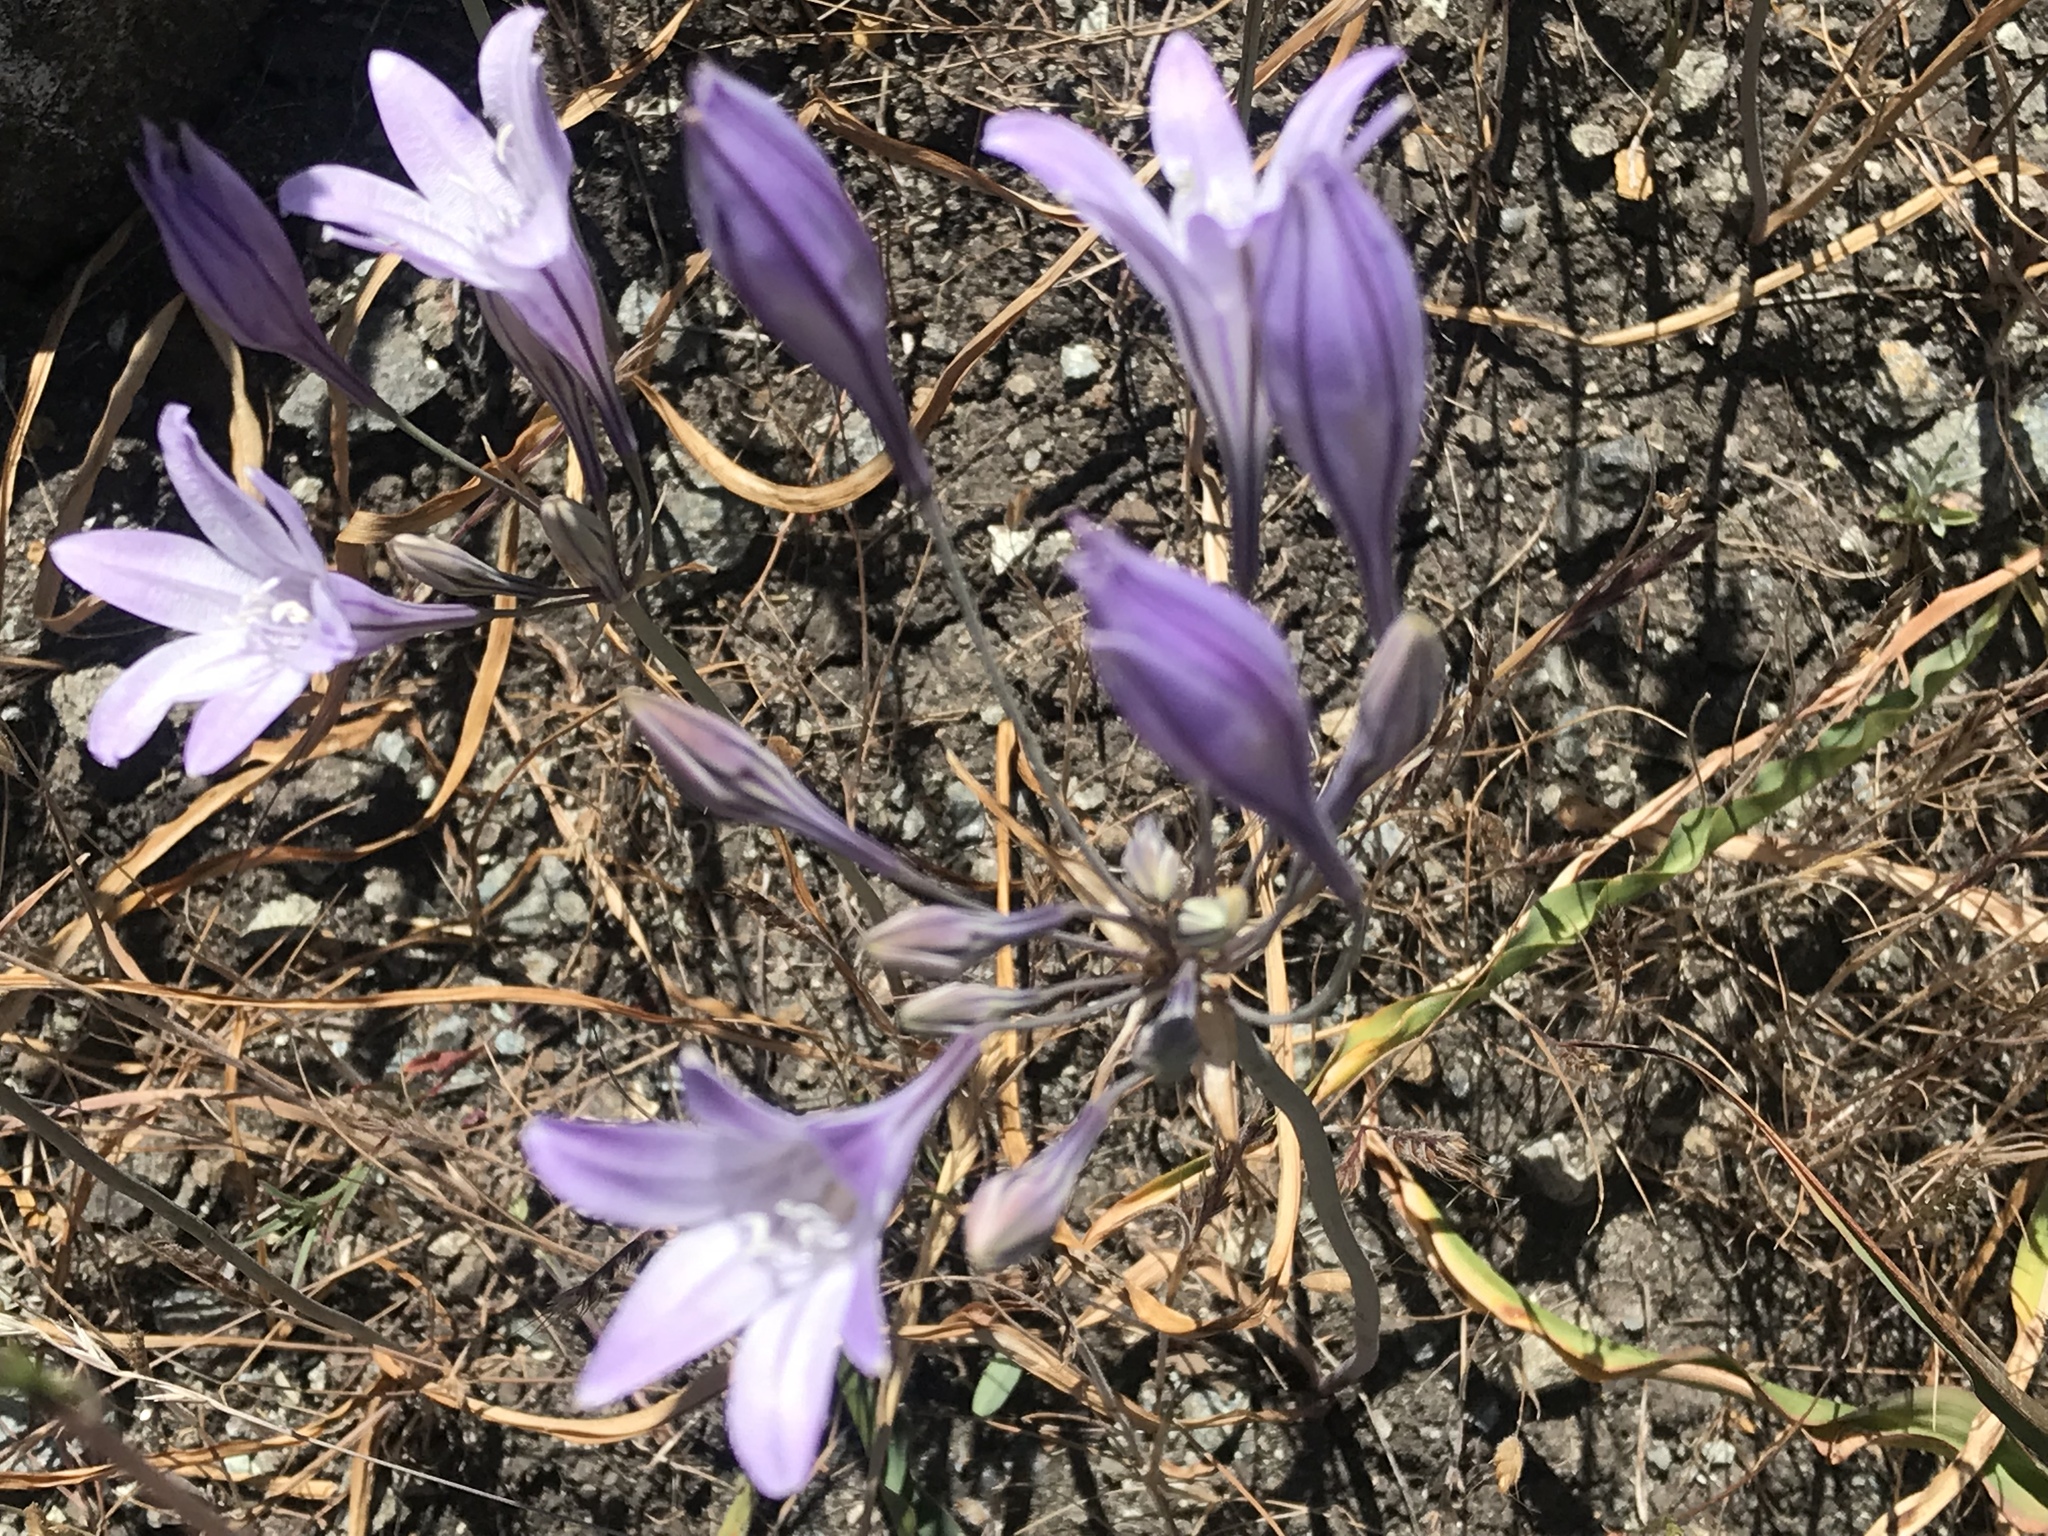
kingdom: Plantae
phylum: Tracheophyta
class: Liliopsida
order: Asparagales
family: Asparagaceae
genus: Triteleia
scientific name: Triteleia laxa
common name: Triplet-lily
